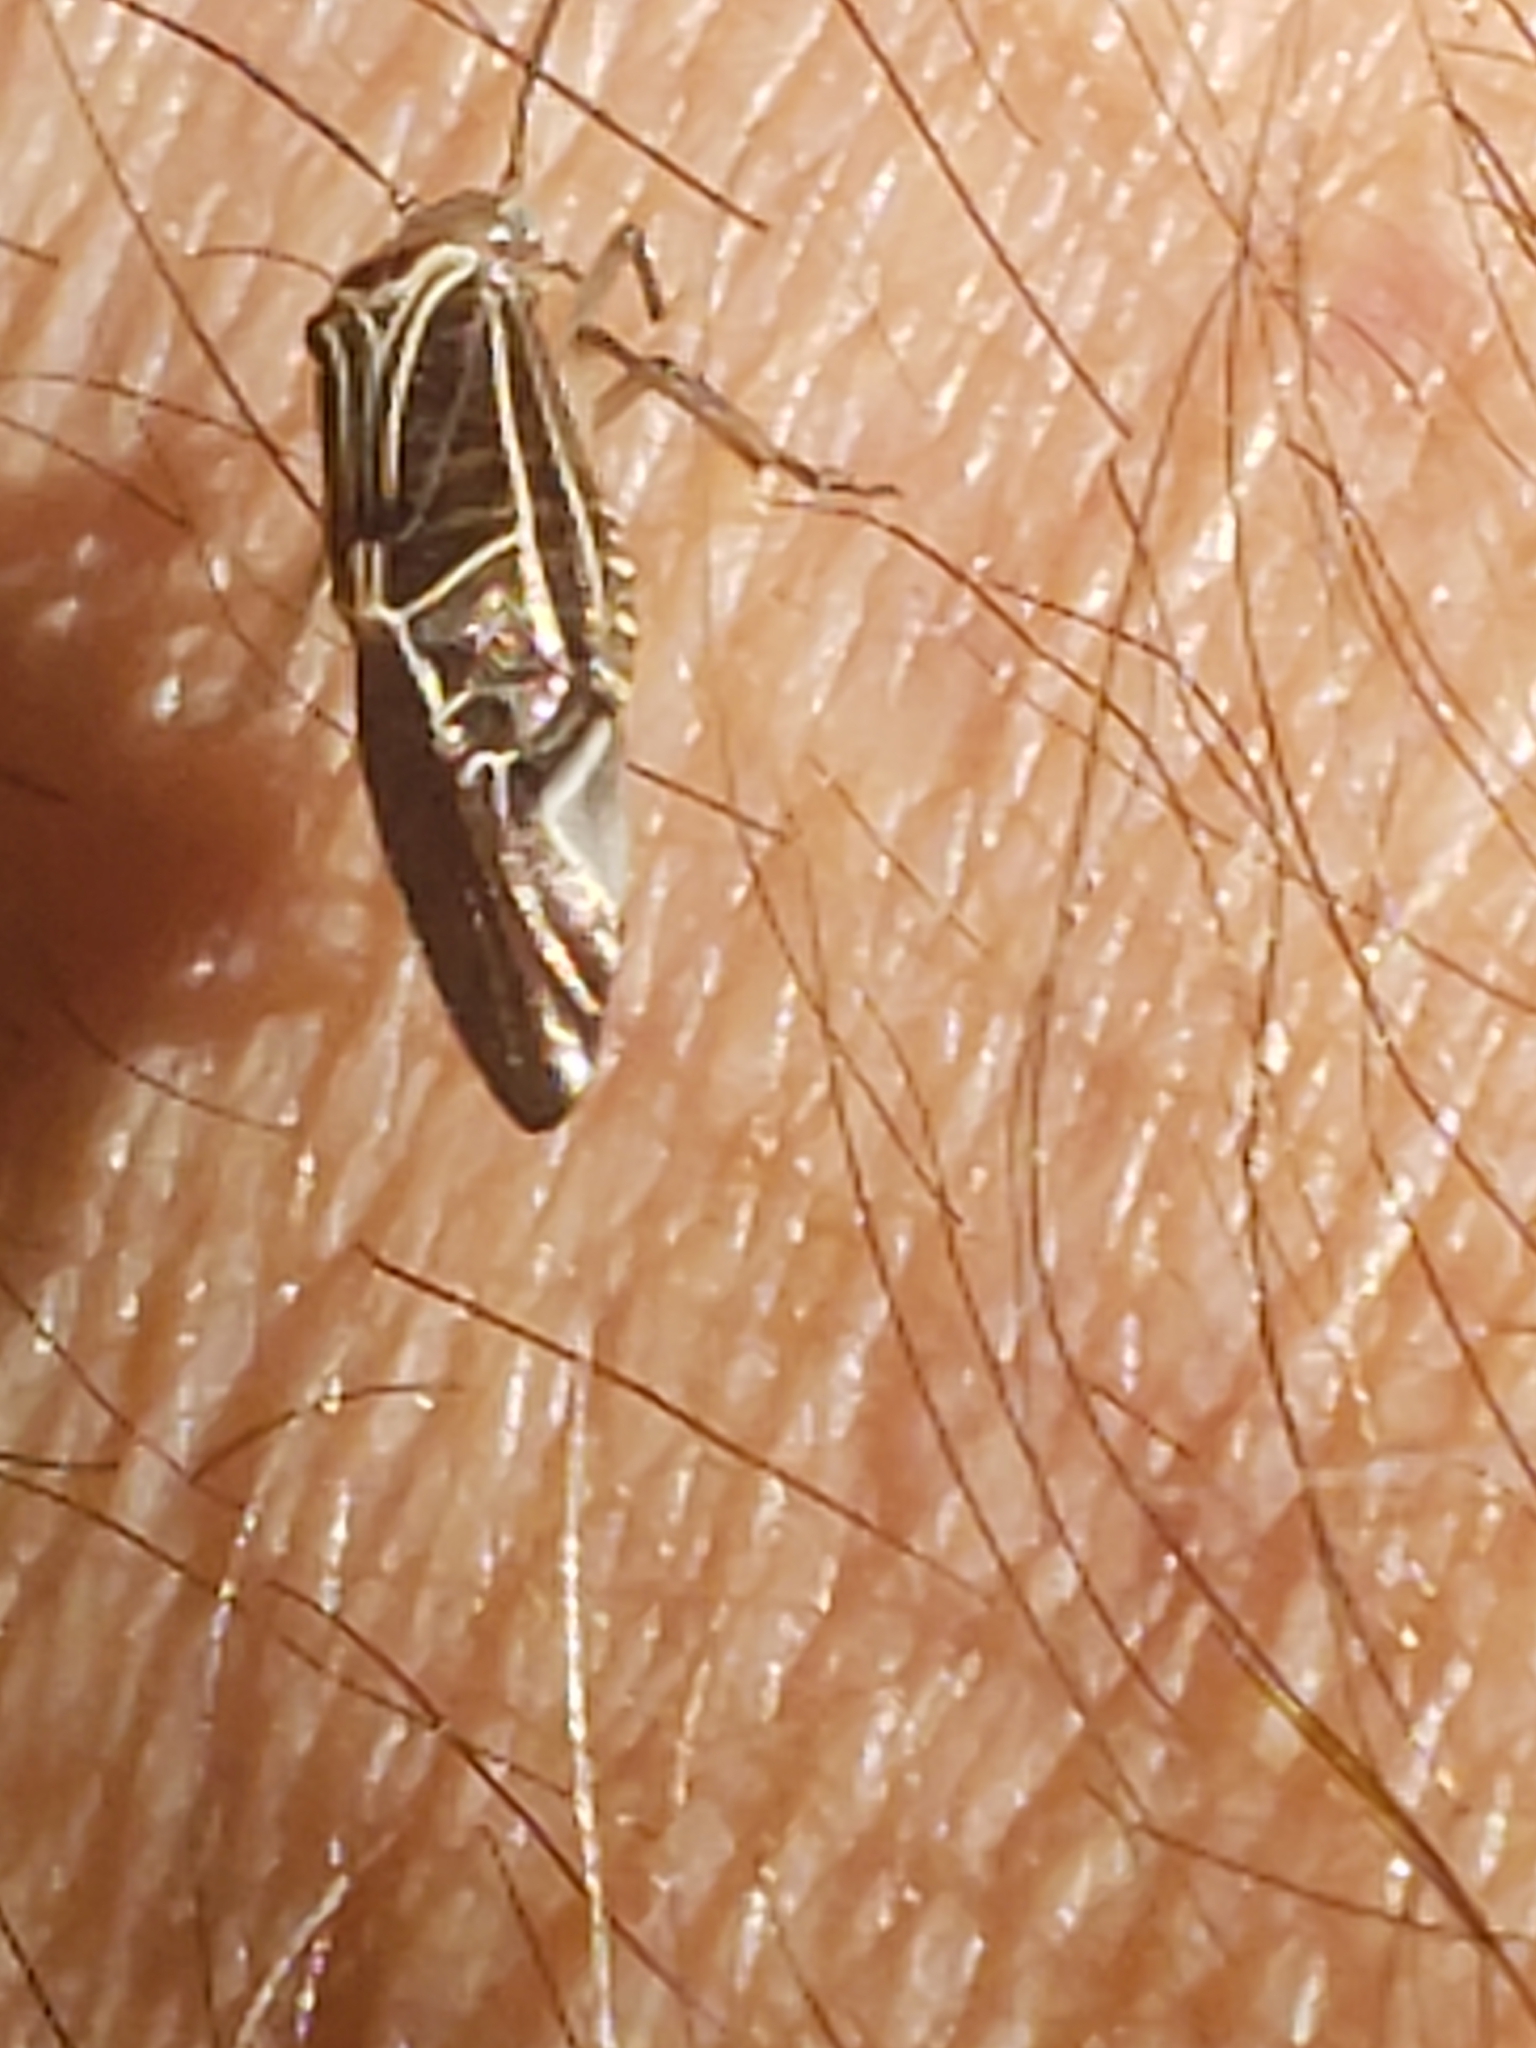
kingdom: Animalia
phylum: Arthropoda
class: Insecta
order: Psocodea
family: Psocidae
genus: Cerastipsocus
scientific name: Cerastipsocus venosus
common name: Tree cattle
